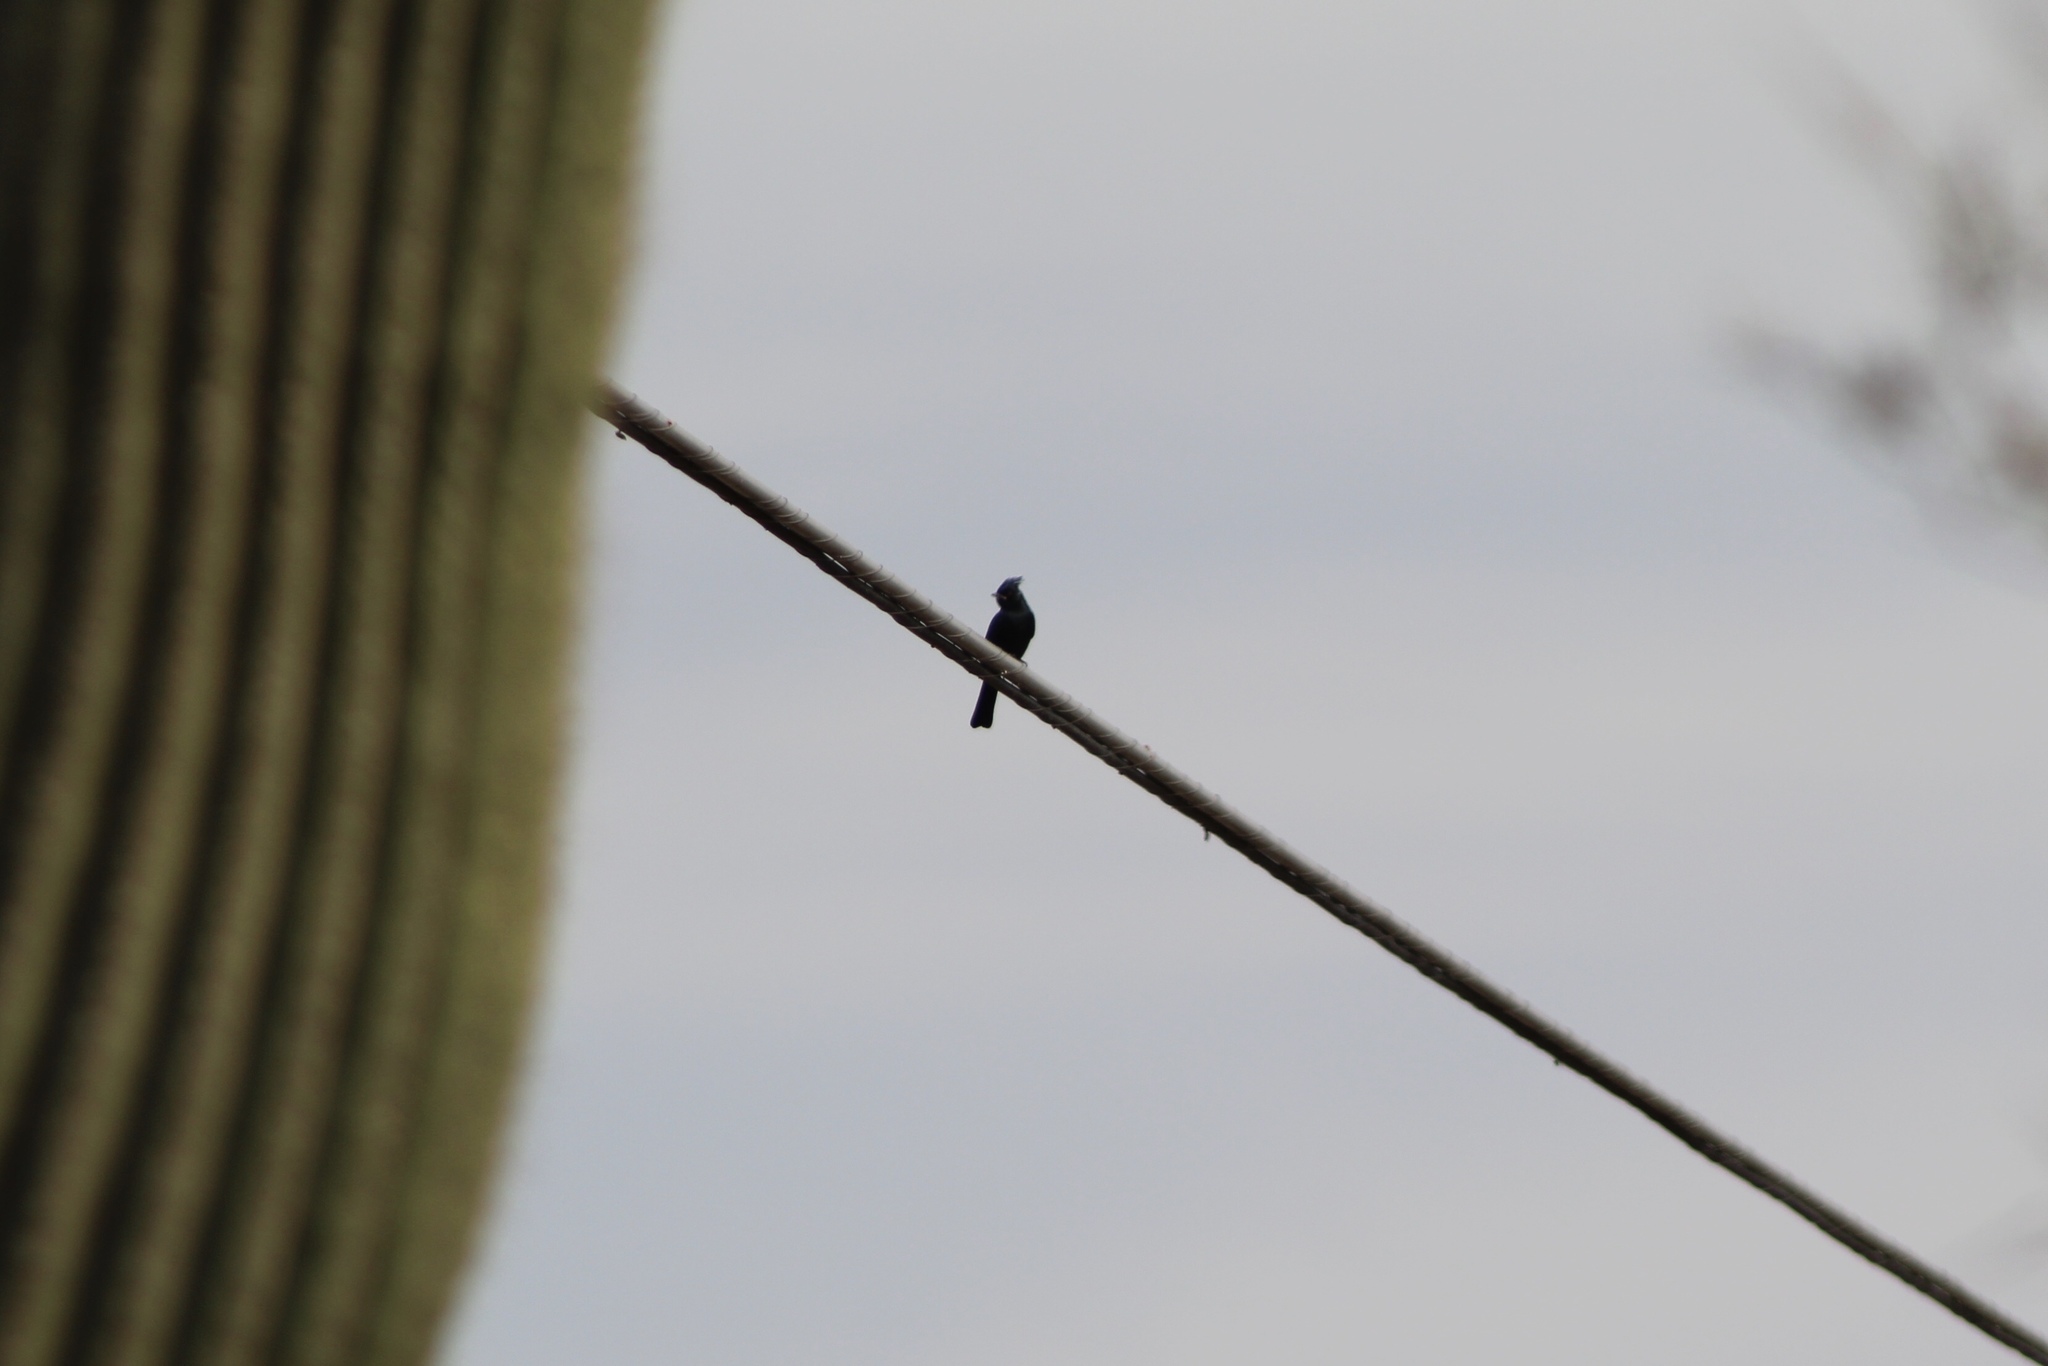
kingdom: Animalia
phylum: Chordata
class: Aves
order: Passeriformes
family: Ptilogonatidae
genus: Phainopepla
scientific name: Phainopepla nitens
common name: Phainopepla
